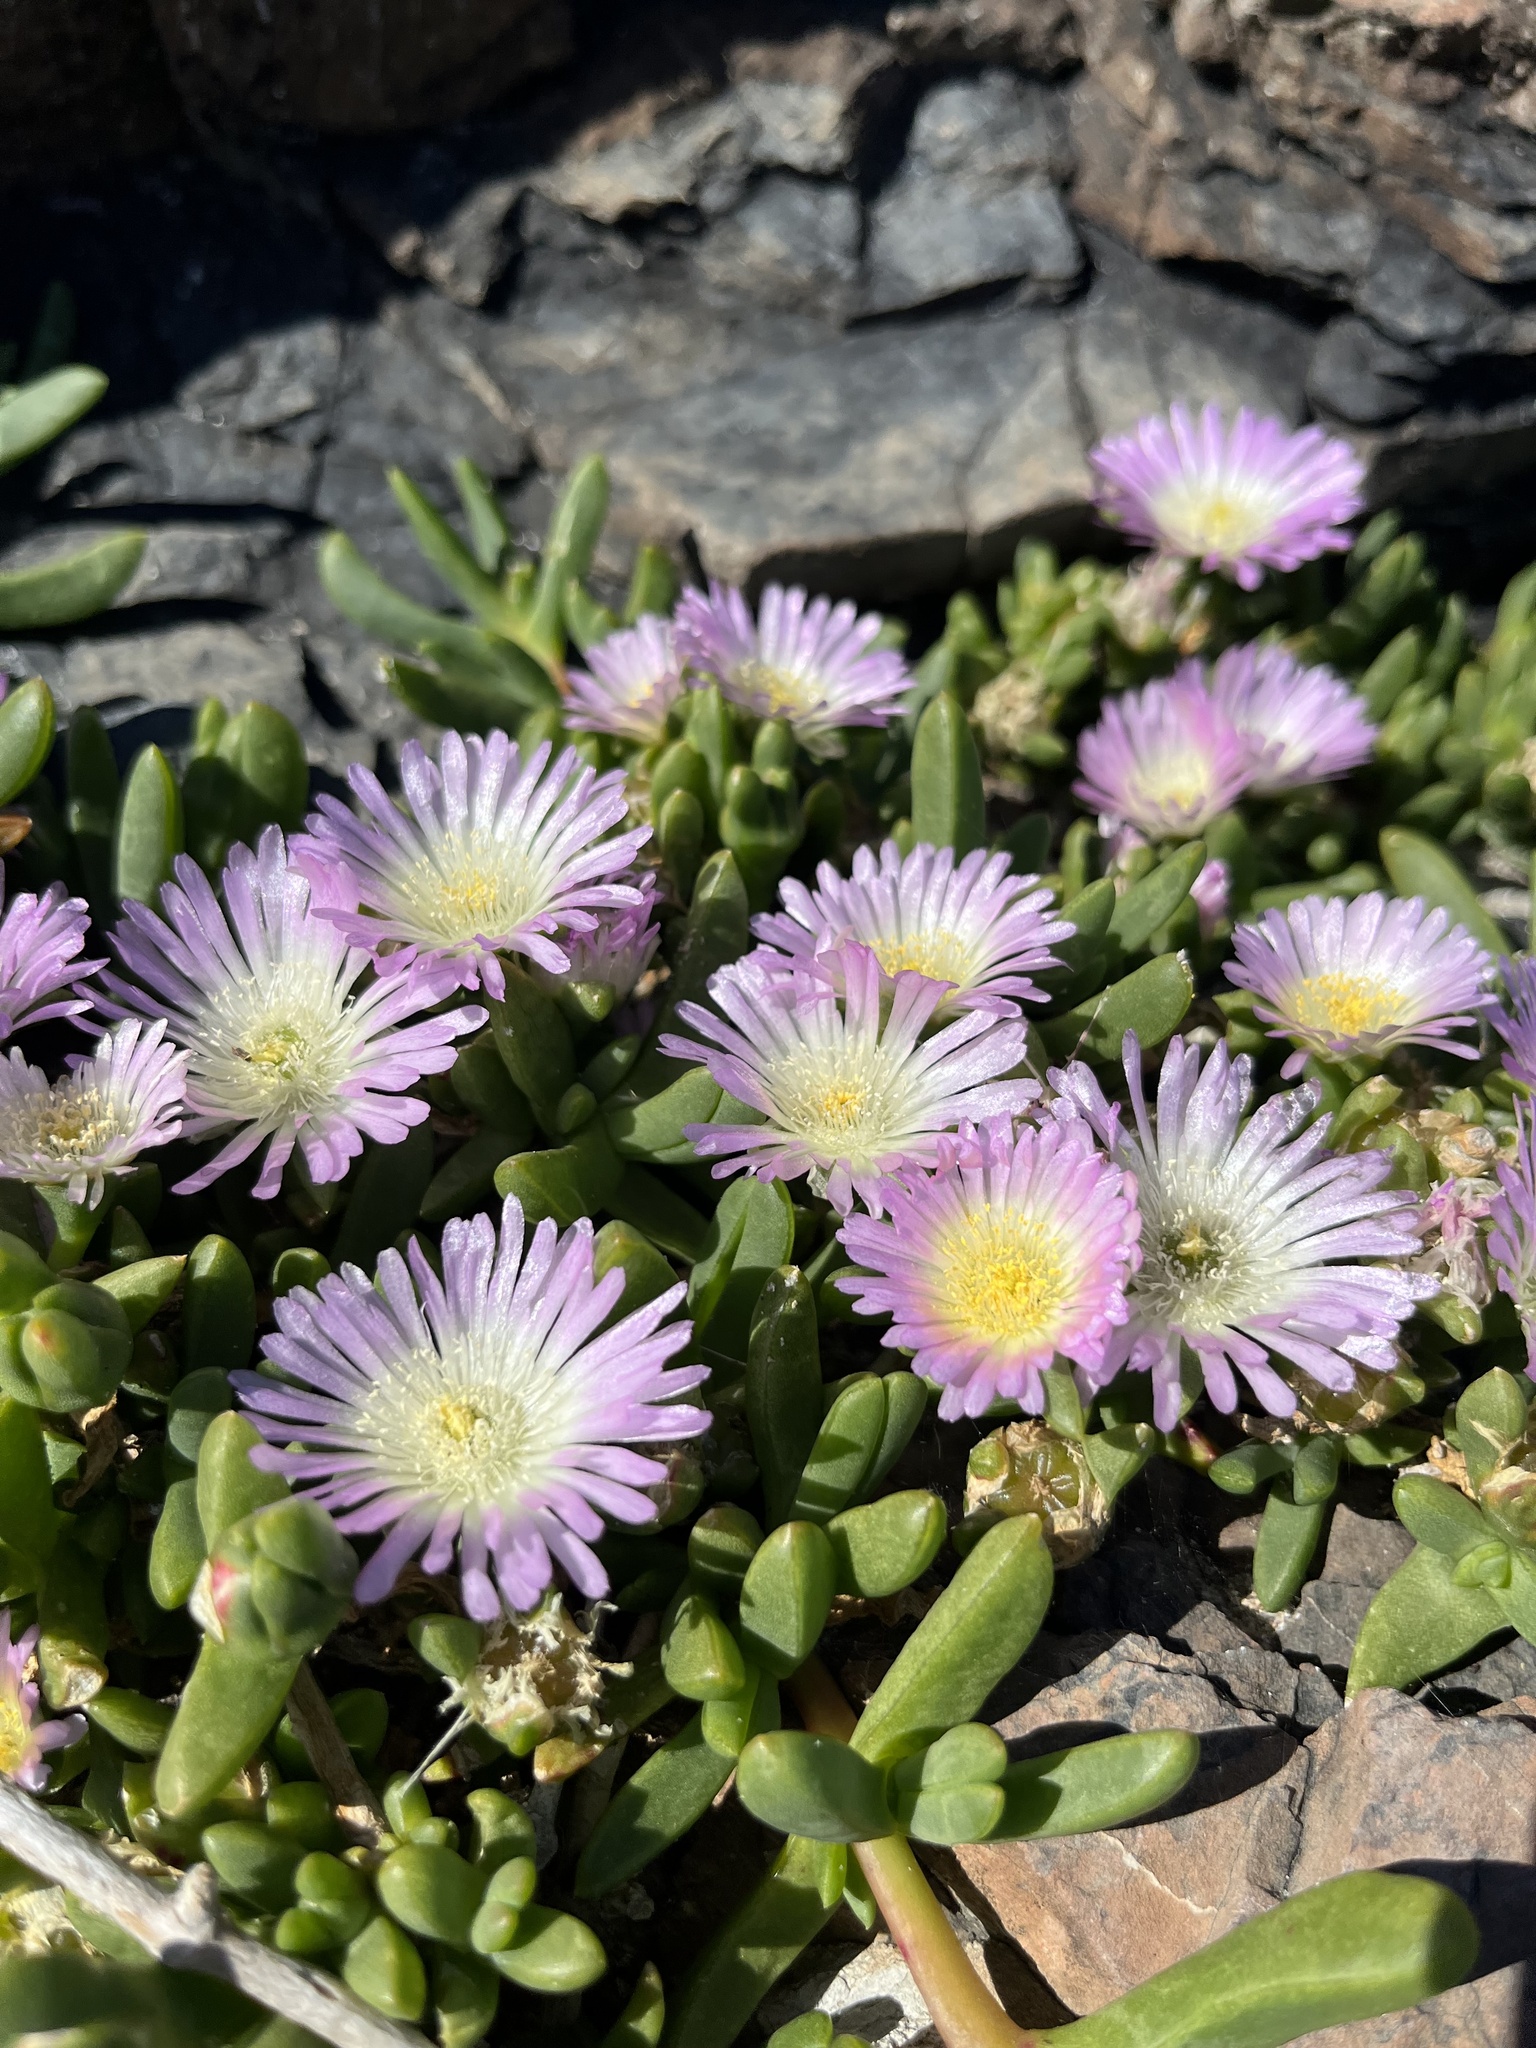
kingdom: Plantae
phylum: Tracheophyta
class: Magnoliopsida
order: Caryophyllales
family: Aizoaceae
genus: Disphyma
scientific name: Disphyma australe
